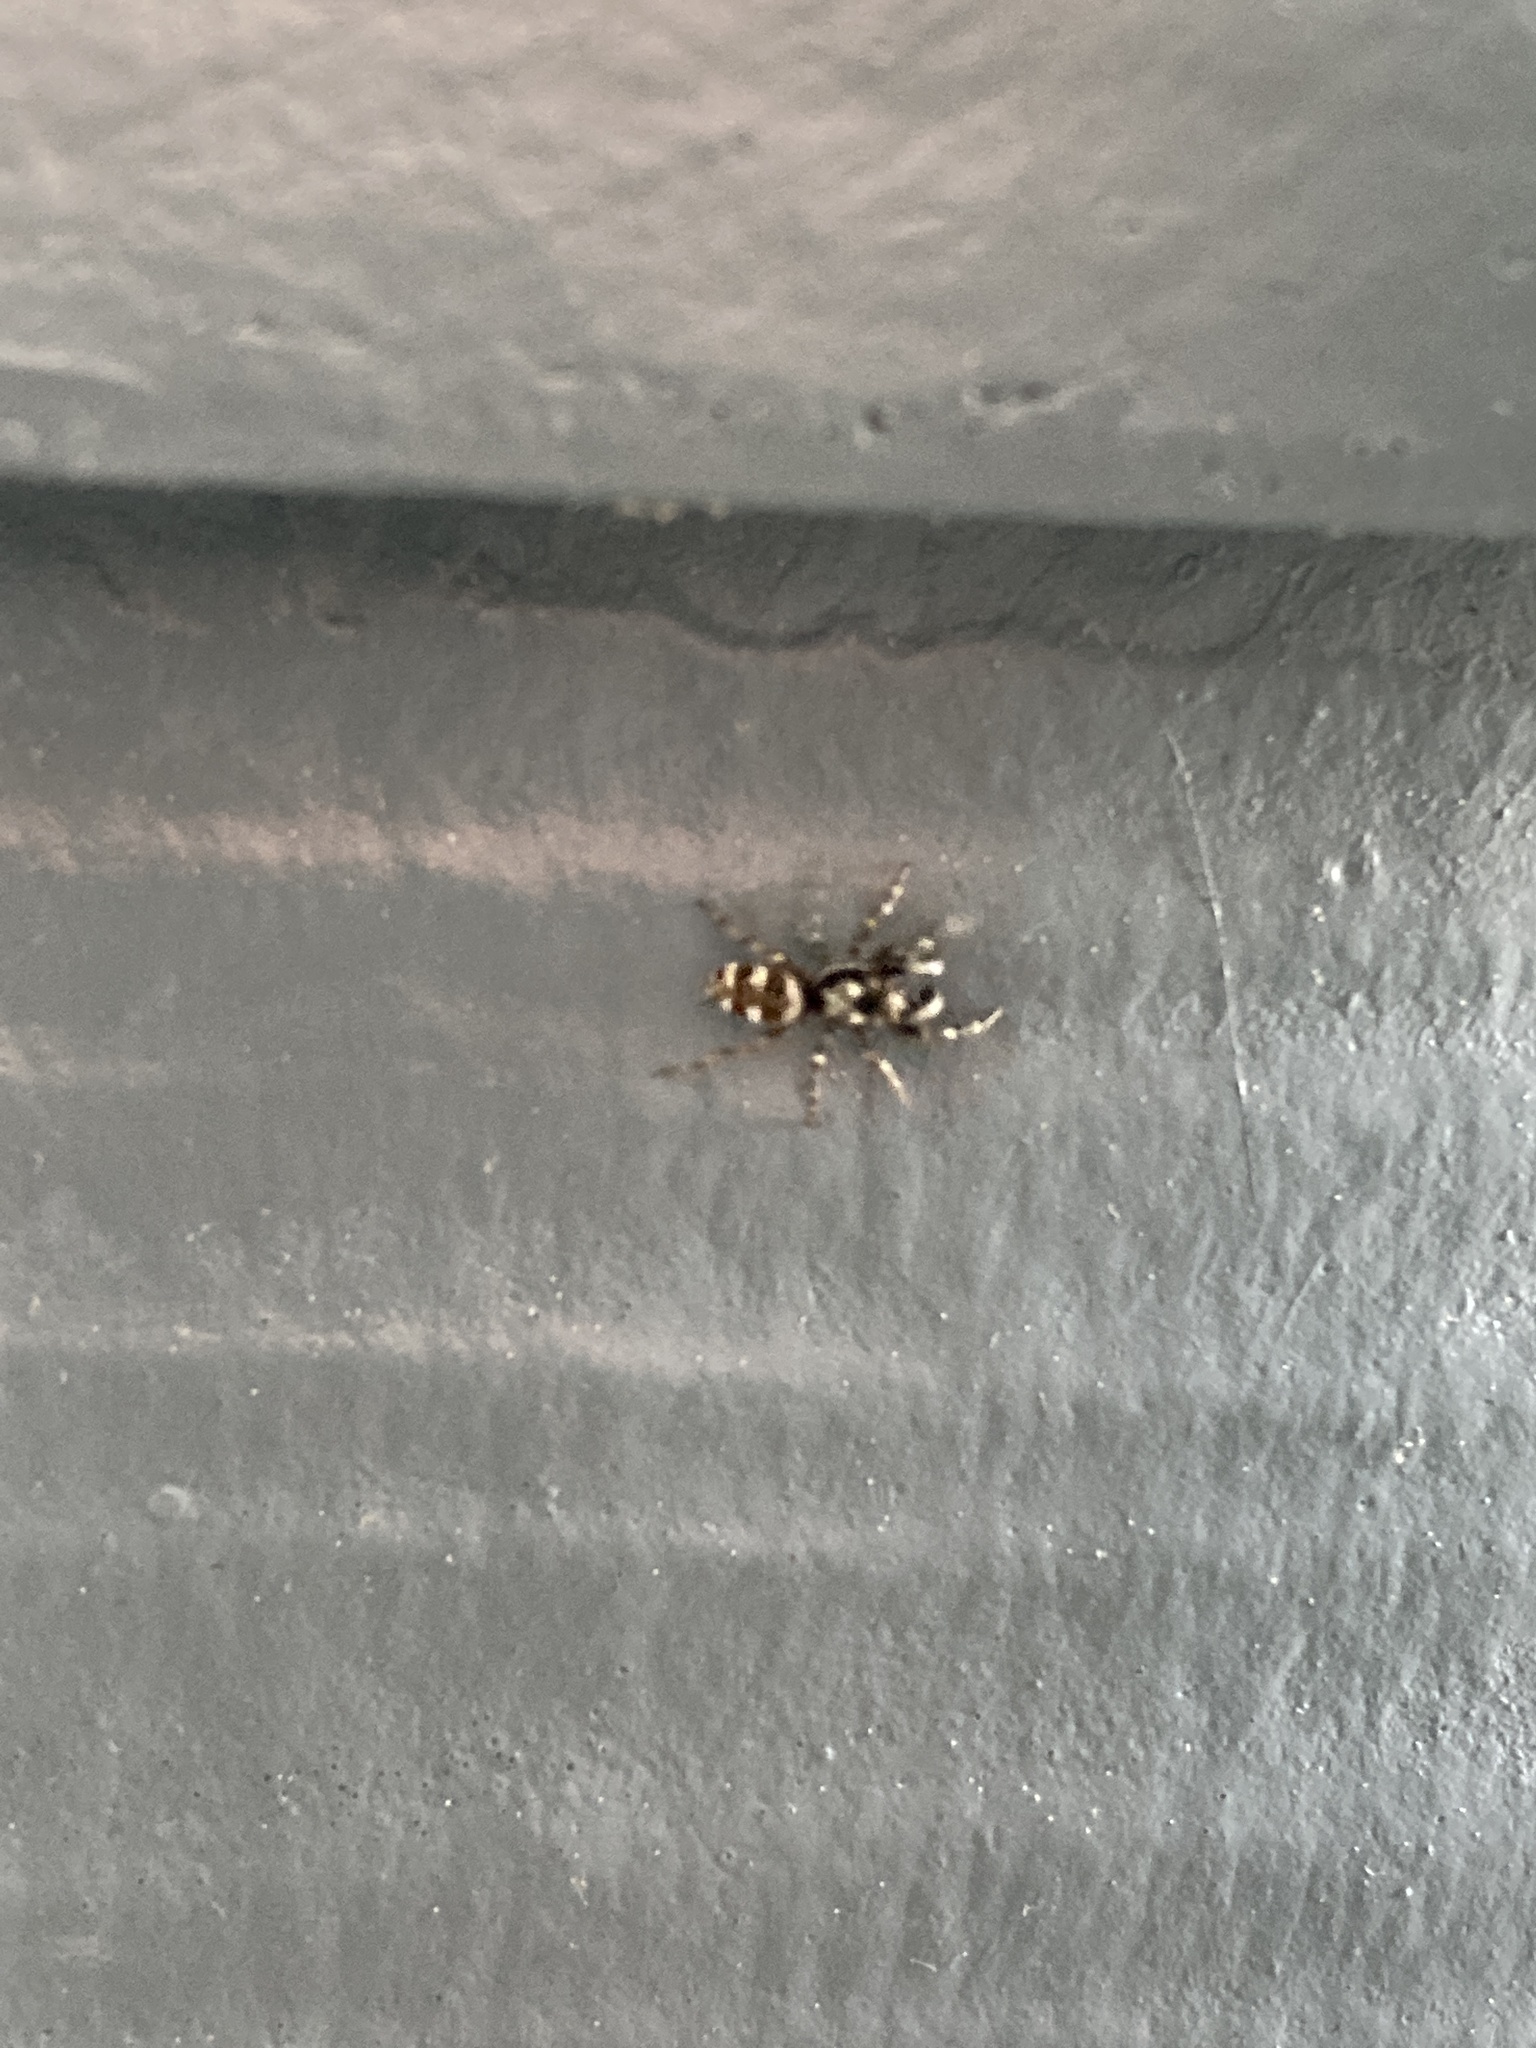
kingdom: Animalia
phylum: Arthropoda
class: Arachnida
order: Araneae
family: Salticidae
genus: Salticus
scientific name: Salticus scenicus
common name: Zebra jumper
